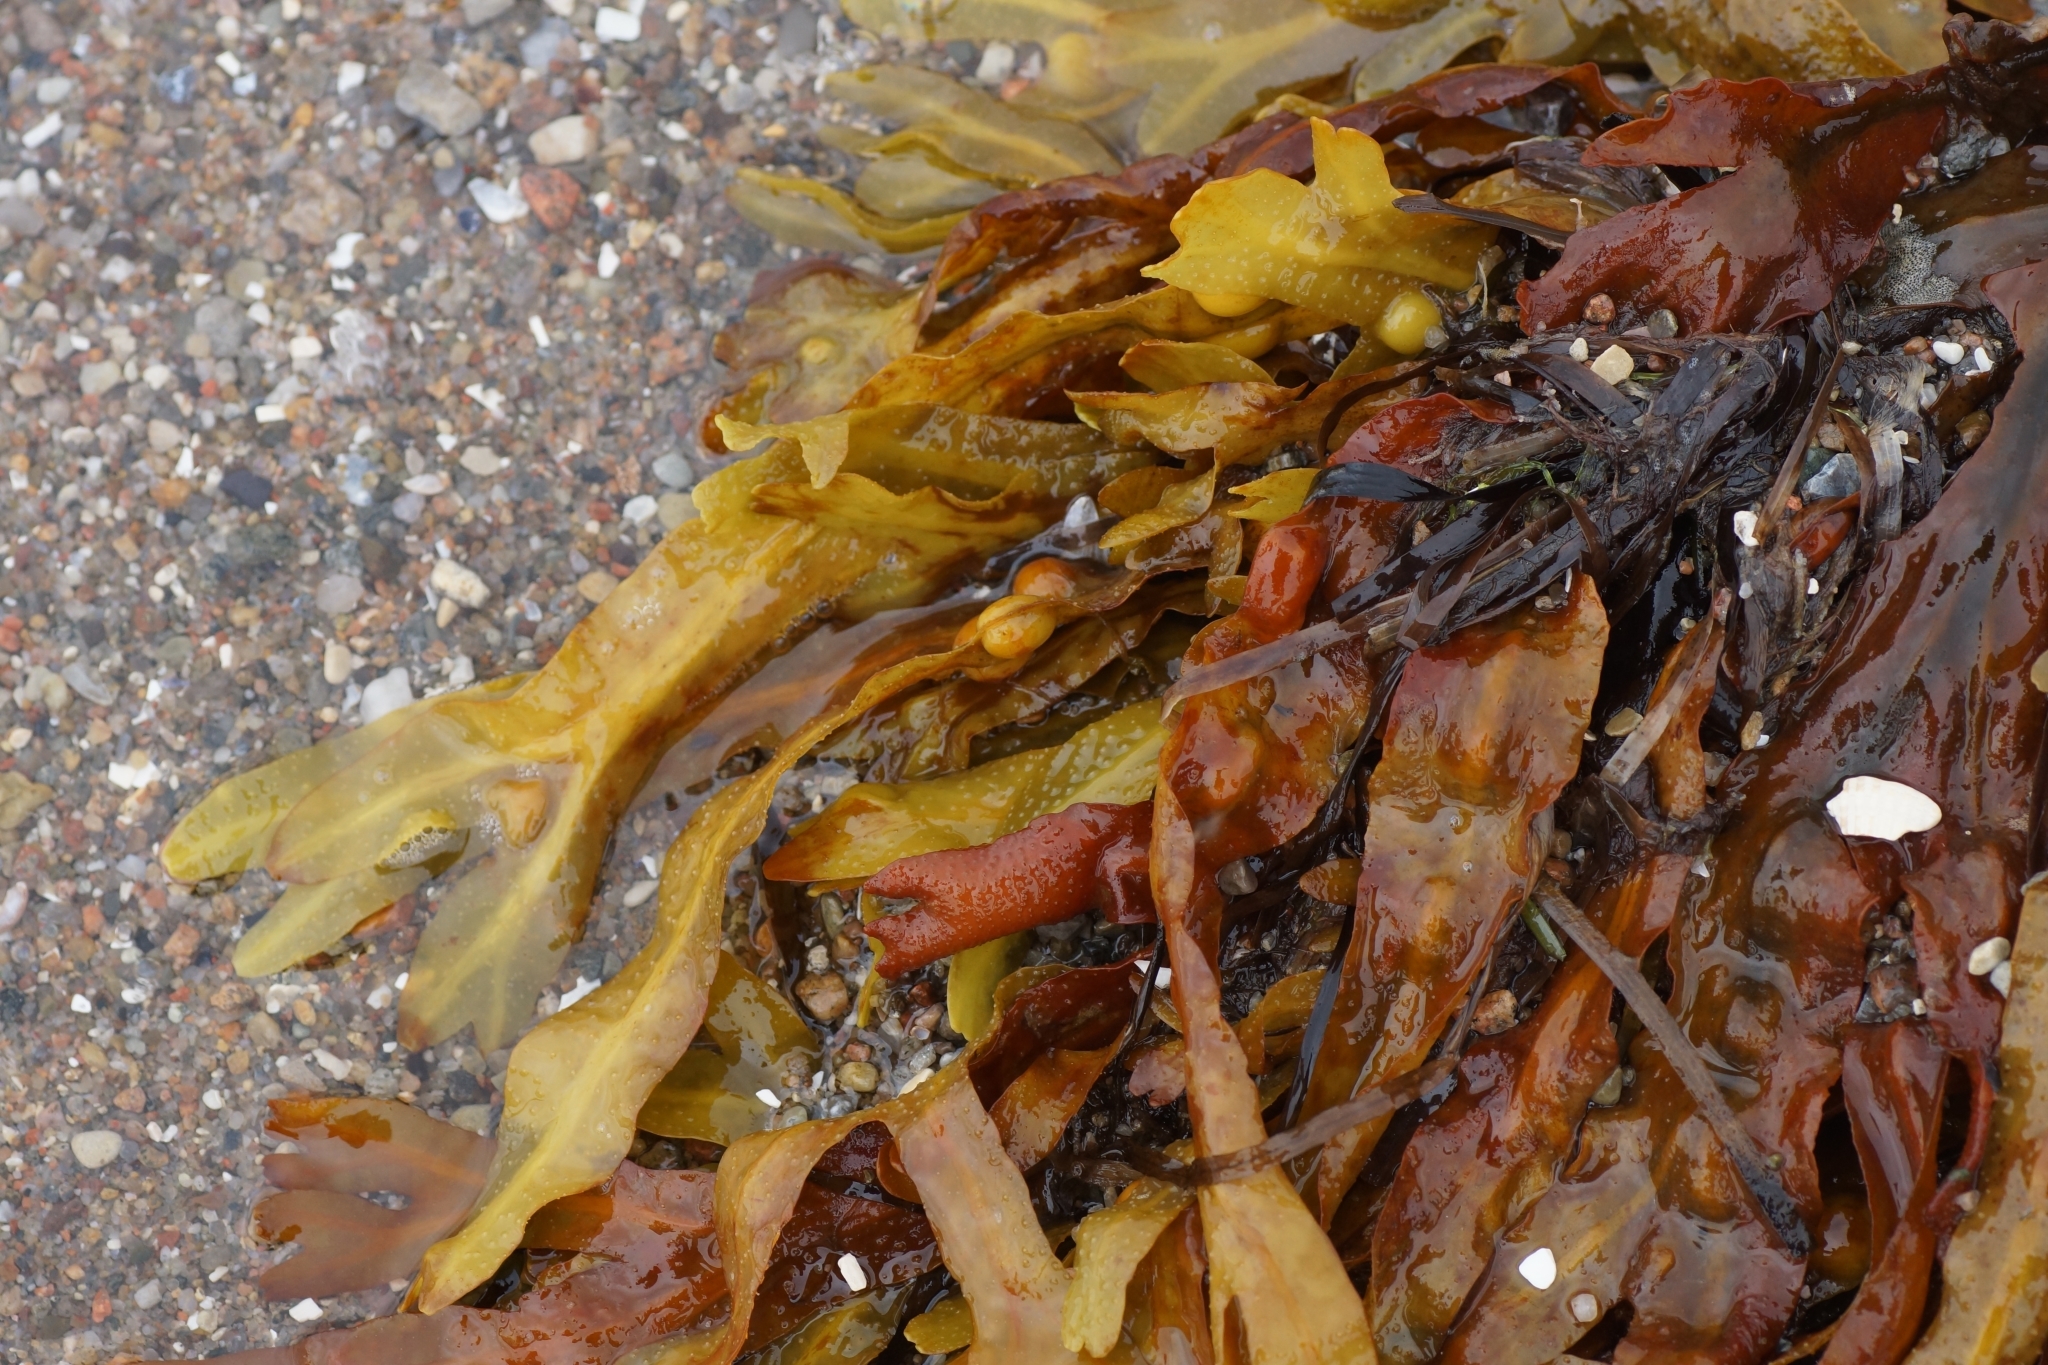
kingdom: Chromista
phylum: Ochrophyta
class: Phaeophyceae
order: Fucales
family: Fucaceae
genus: Fucus
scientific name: Fucus vesiculosus
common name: Bladder wrack
